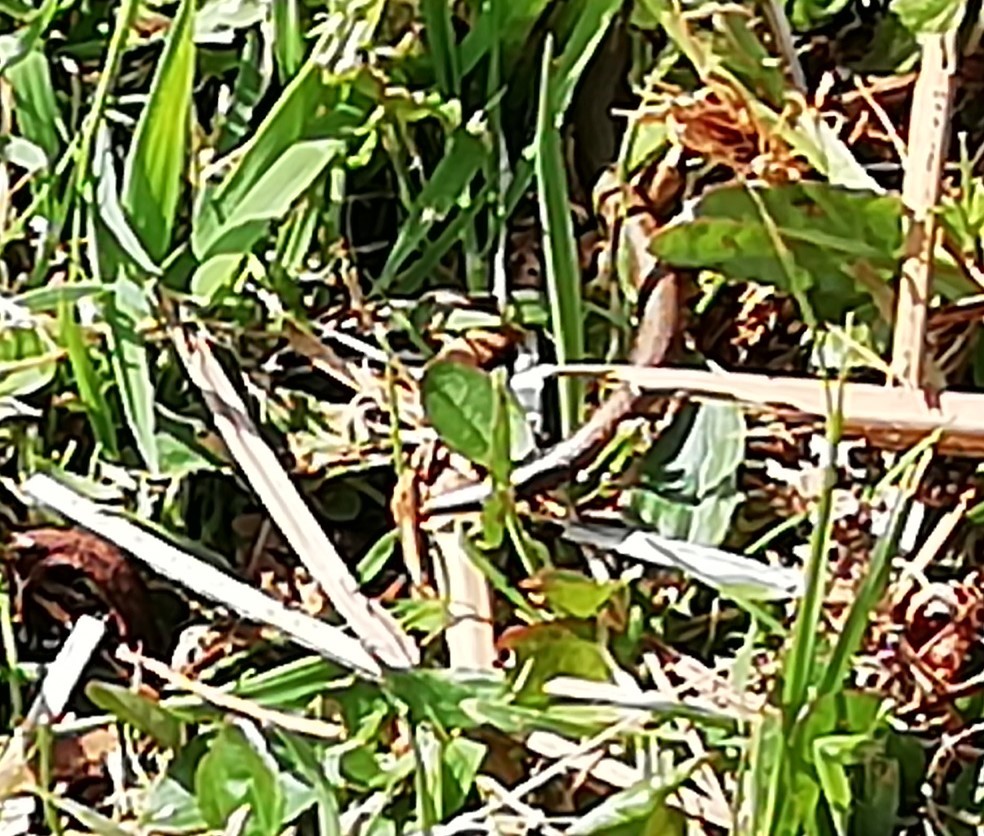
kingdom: Animalia
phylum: Chordata
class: Squamata
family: Anguidae
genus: Anguis
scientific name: Anguis fragilis
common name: Slow worm
